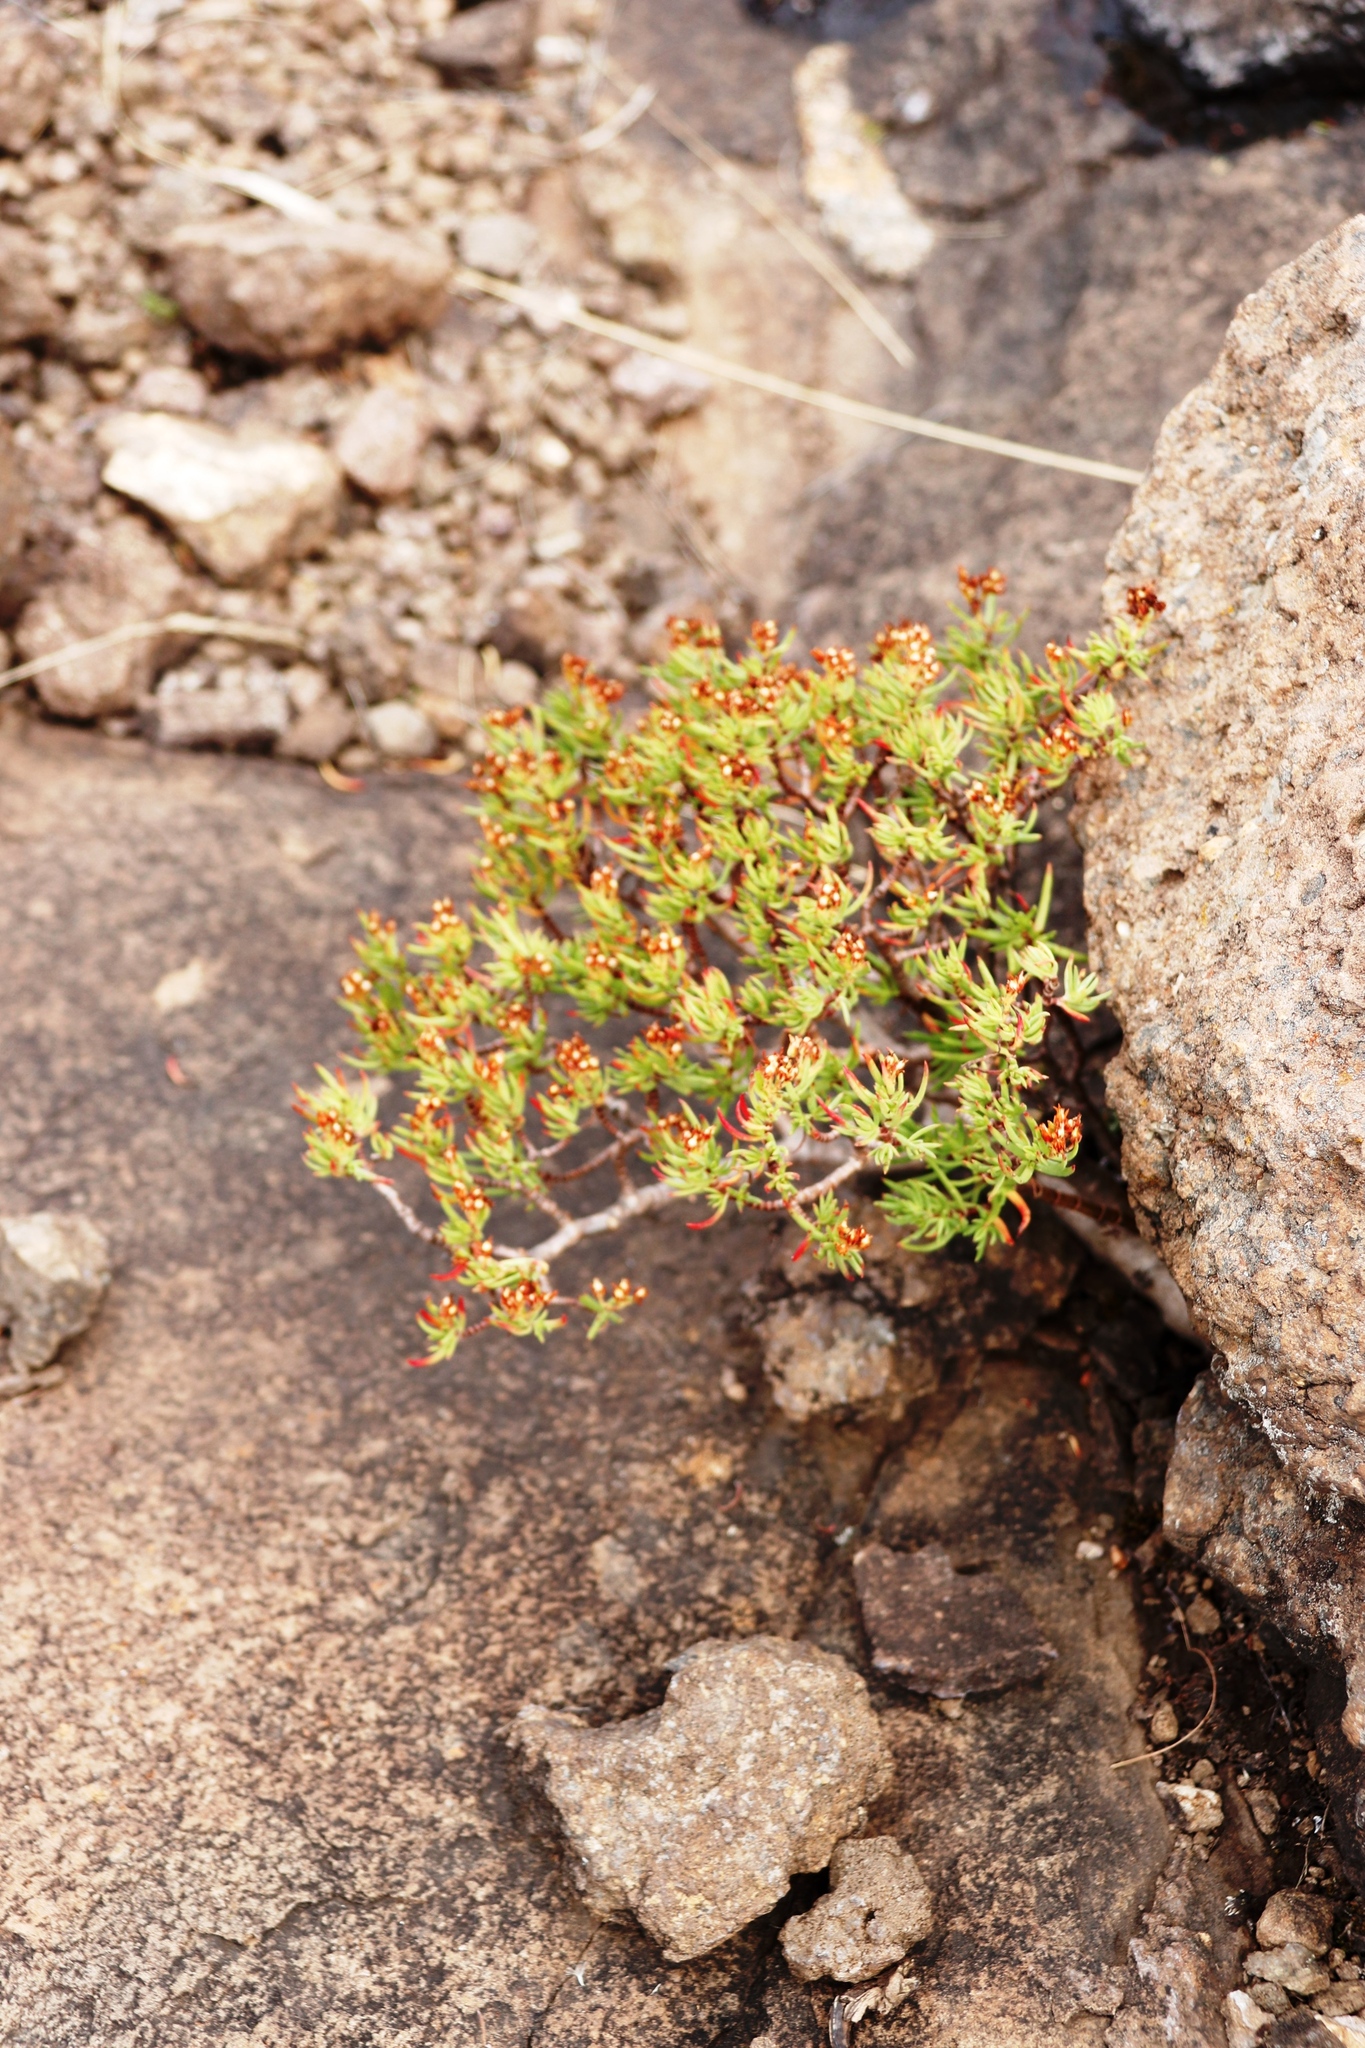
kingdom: Plantae
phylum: Tracheophyta
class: Magnoliopsida
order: Saxifragales
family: Crassulaceae
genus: Crassula
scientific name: Crassula sarcocaulis
